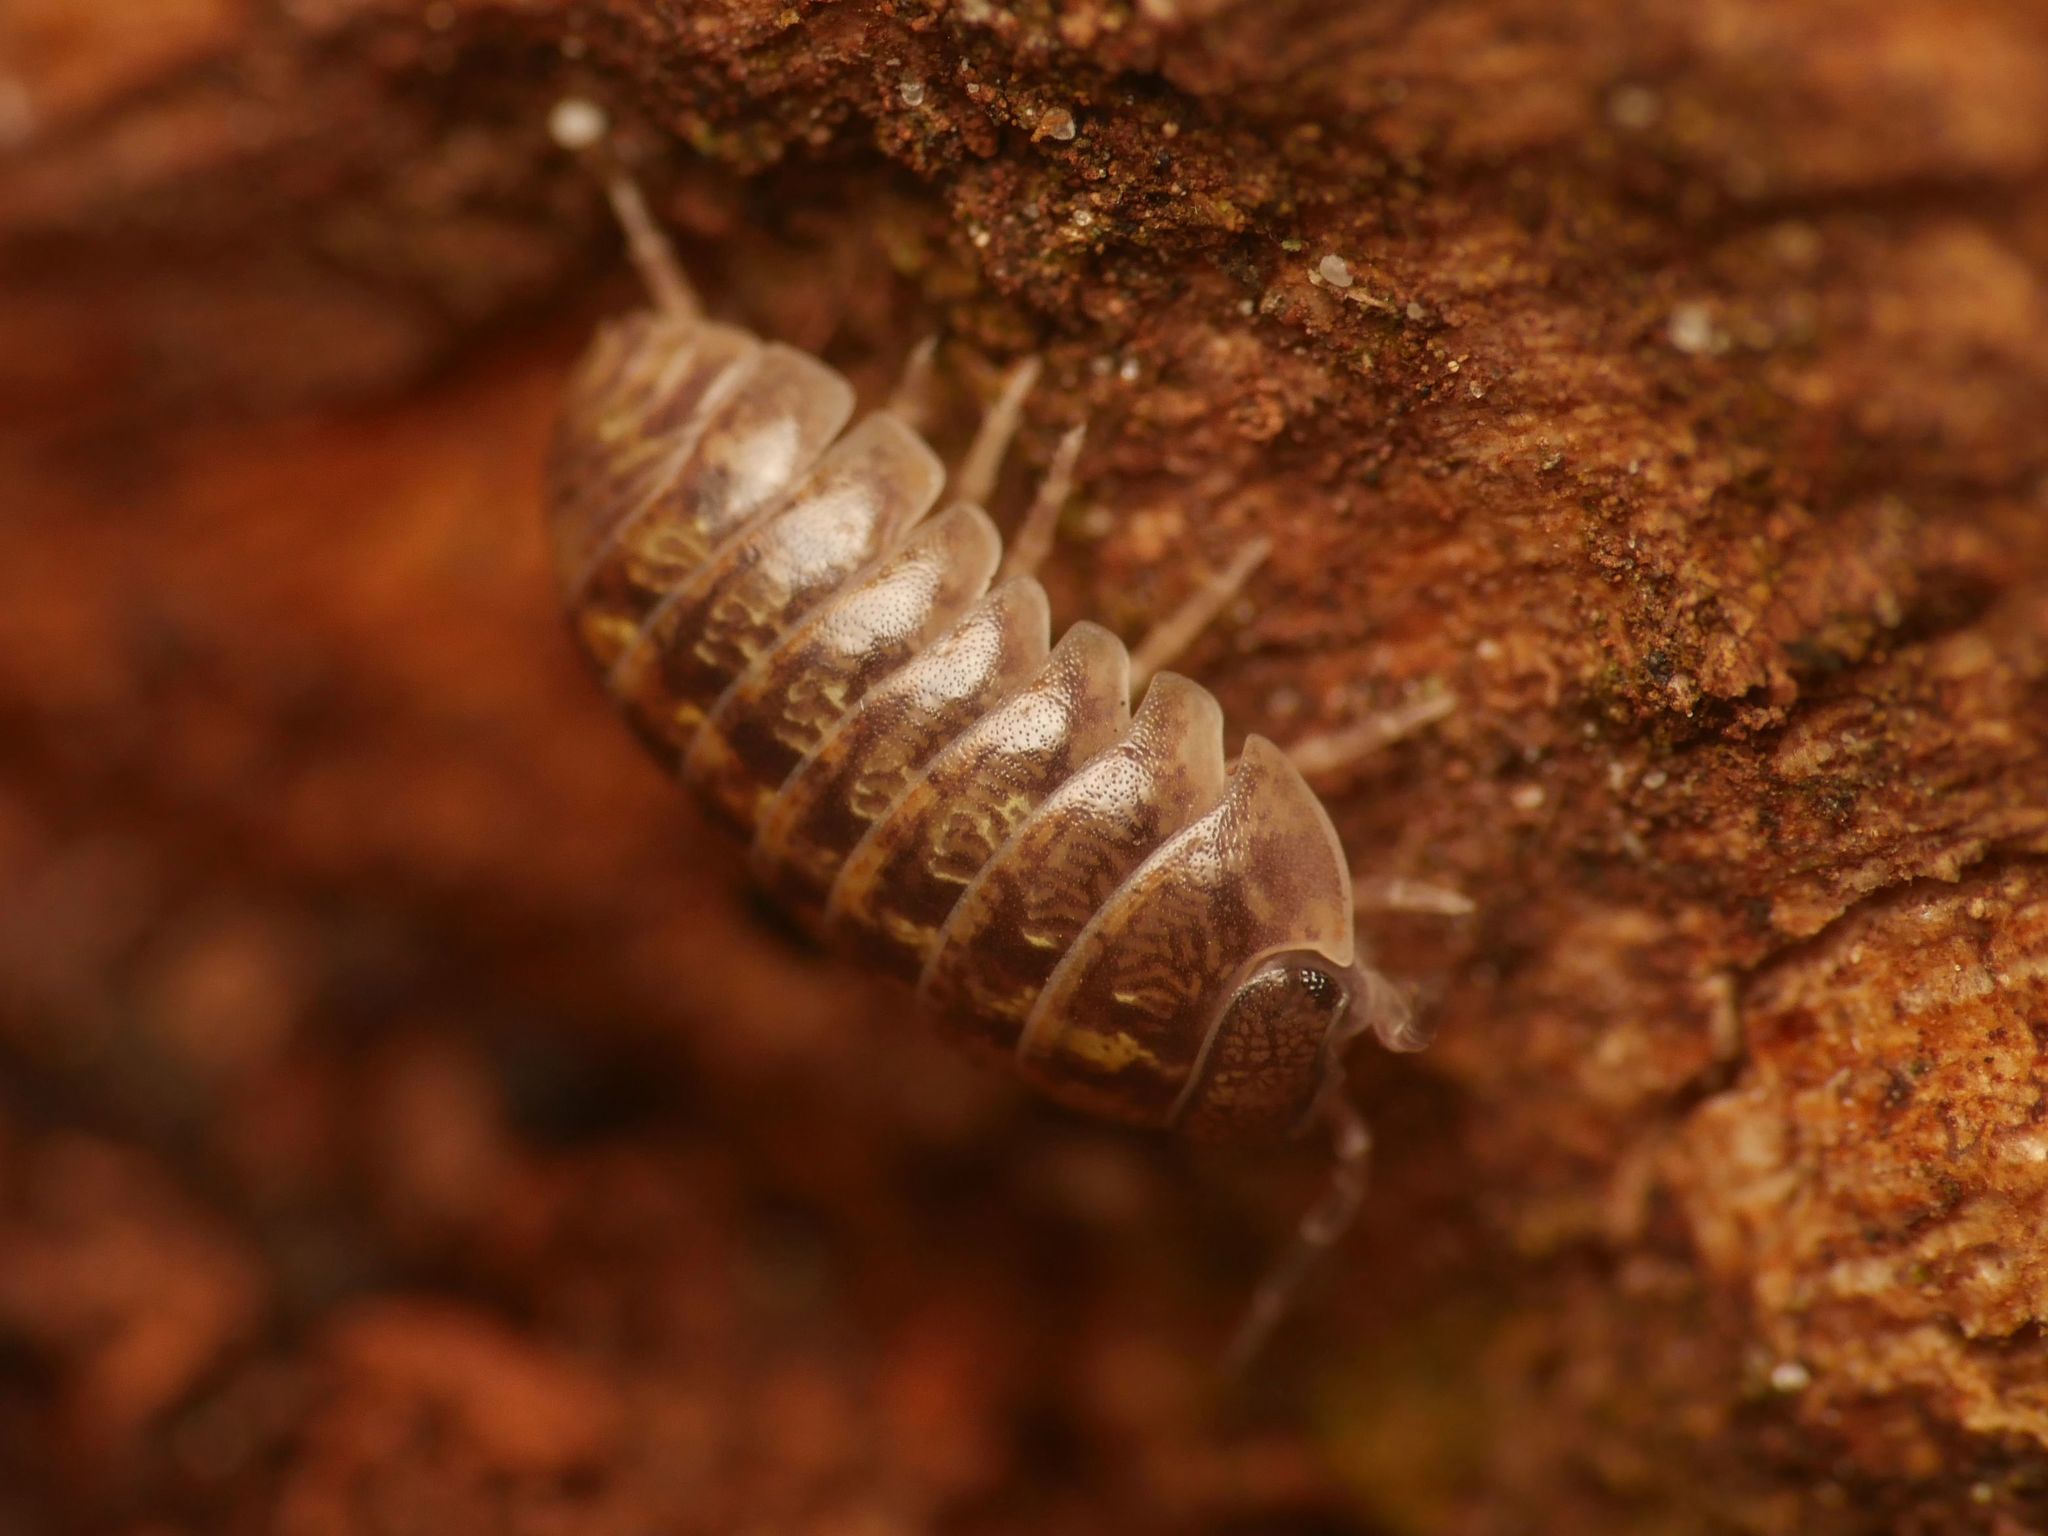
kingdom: Animalia
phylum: Arthropoda
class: Malacostraca
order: Isopoda
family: Armadillidiidae
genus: Armadillidium
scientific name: Armadillidium vulgare
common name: Common pill woodlouse
